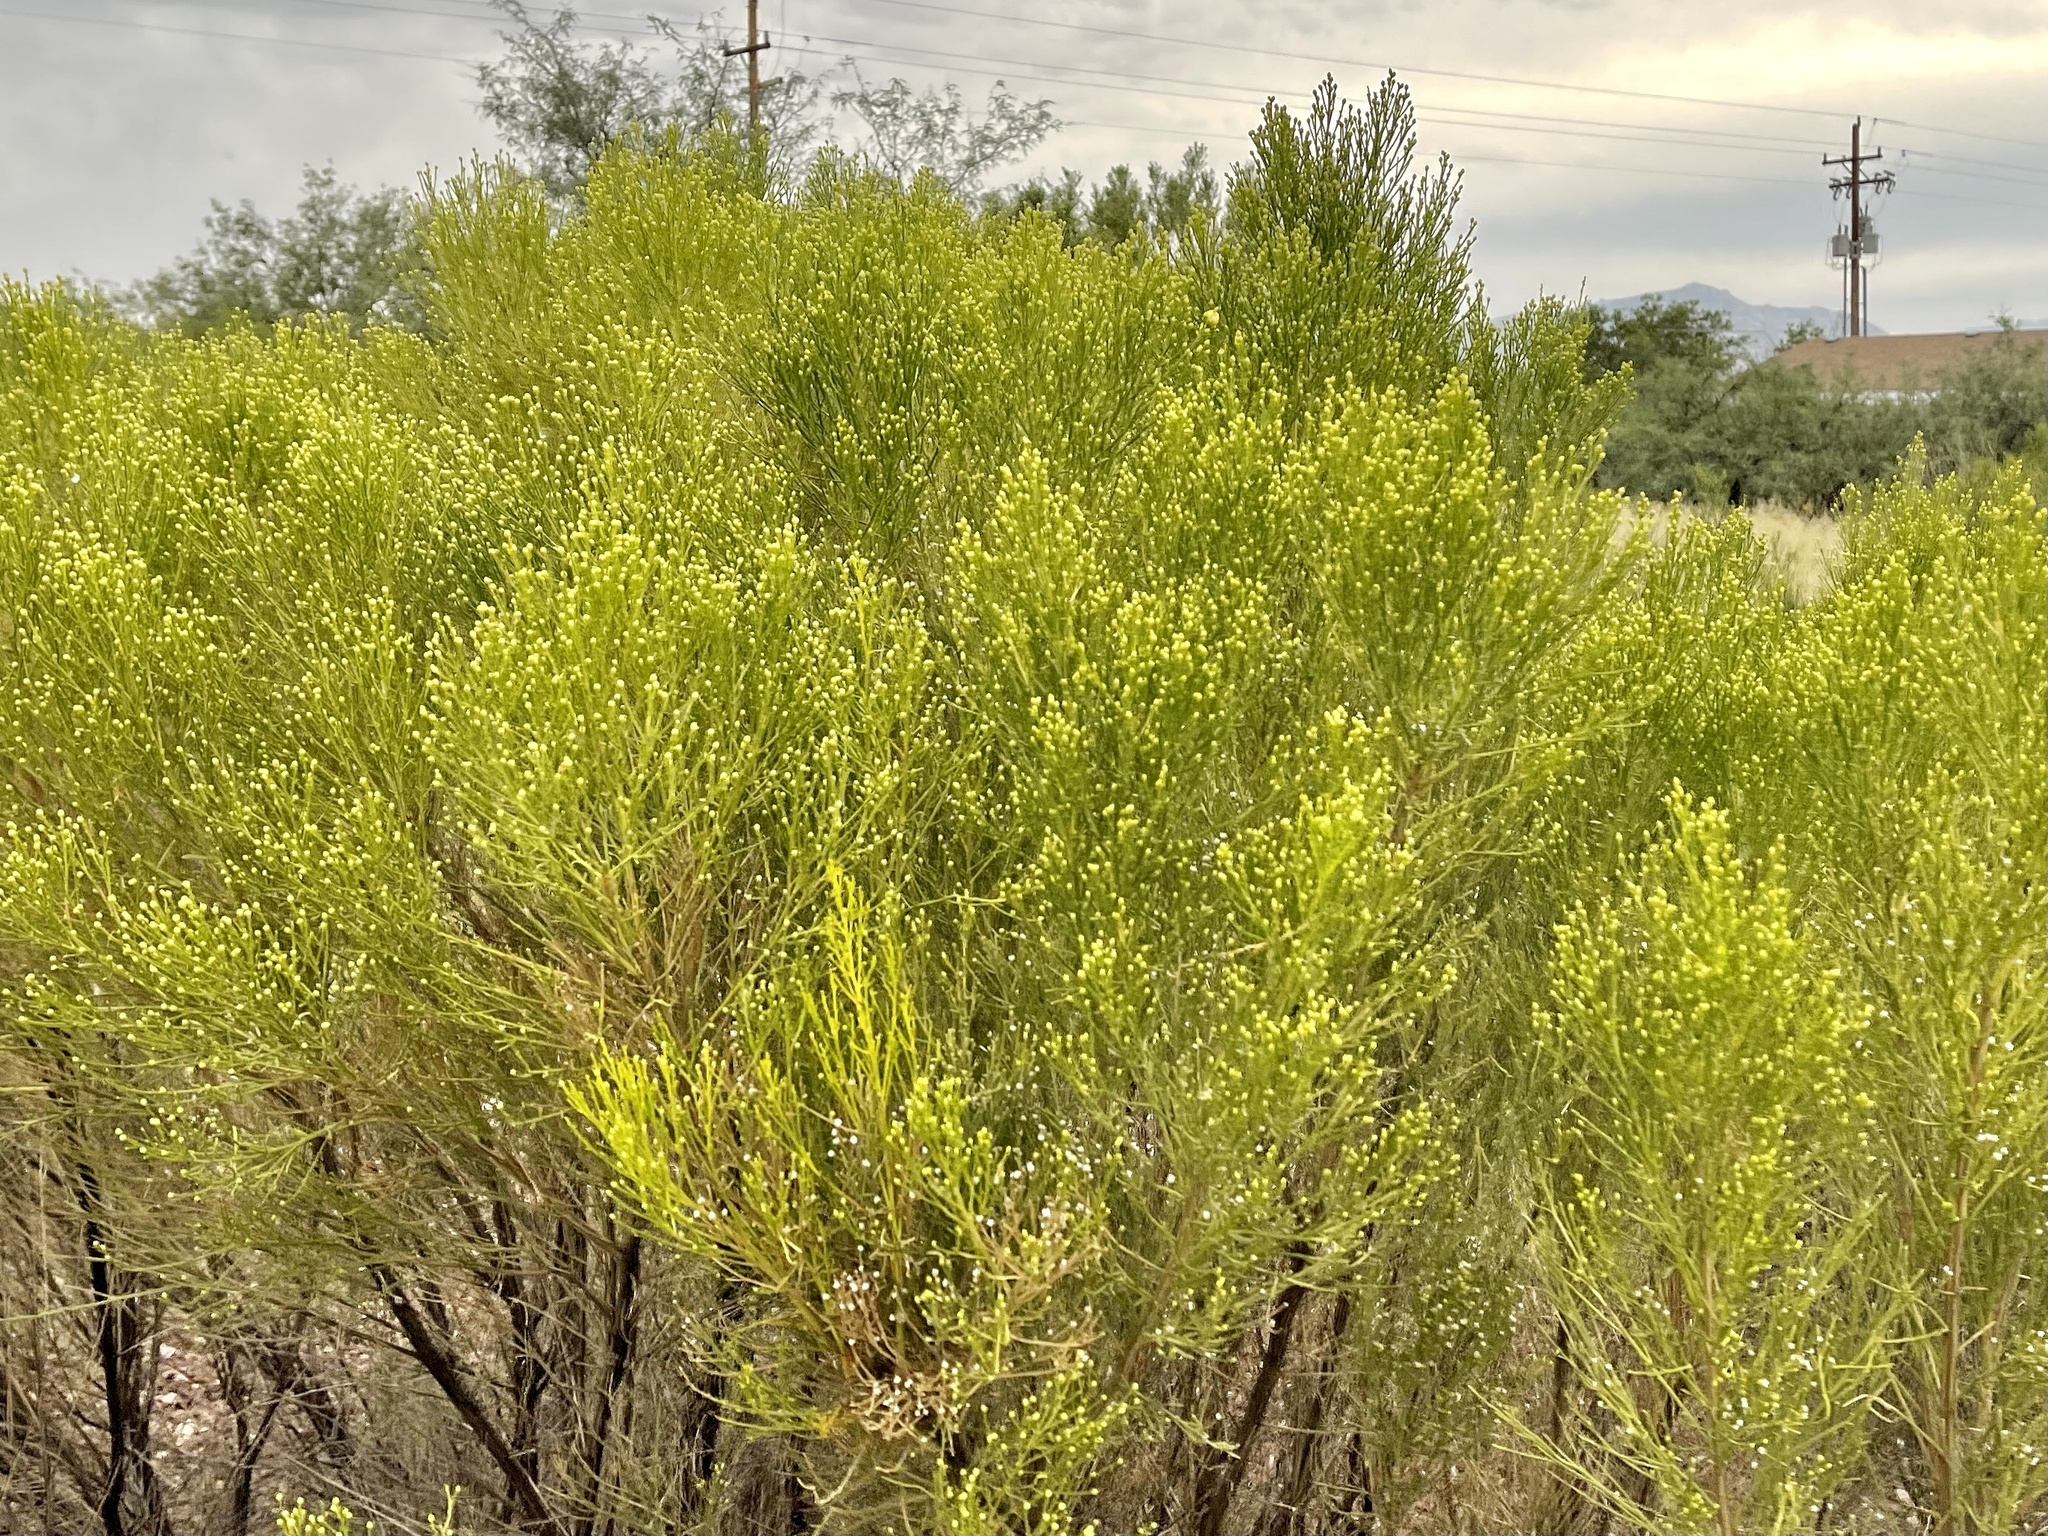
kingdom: Plantae
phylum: Tracheophyta
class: Magnoliopsida
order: Asterales
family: Asteraceae
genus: Baccharis
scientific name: Baccharis sarothroides
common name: Desert-broom
